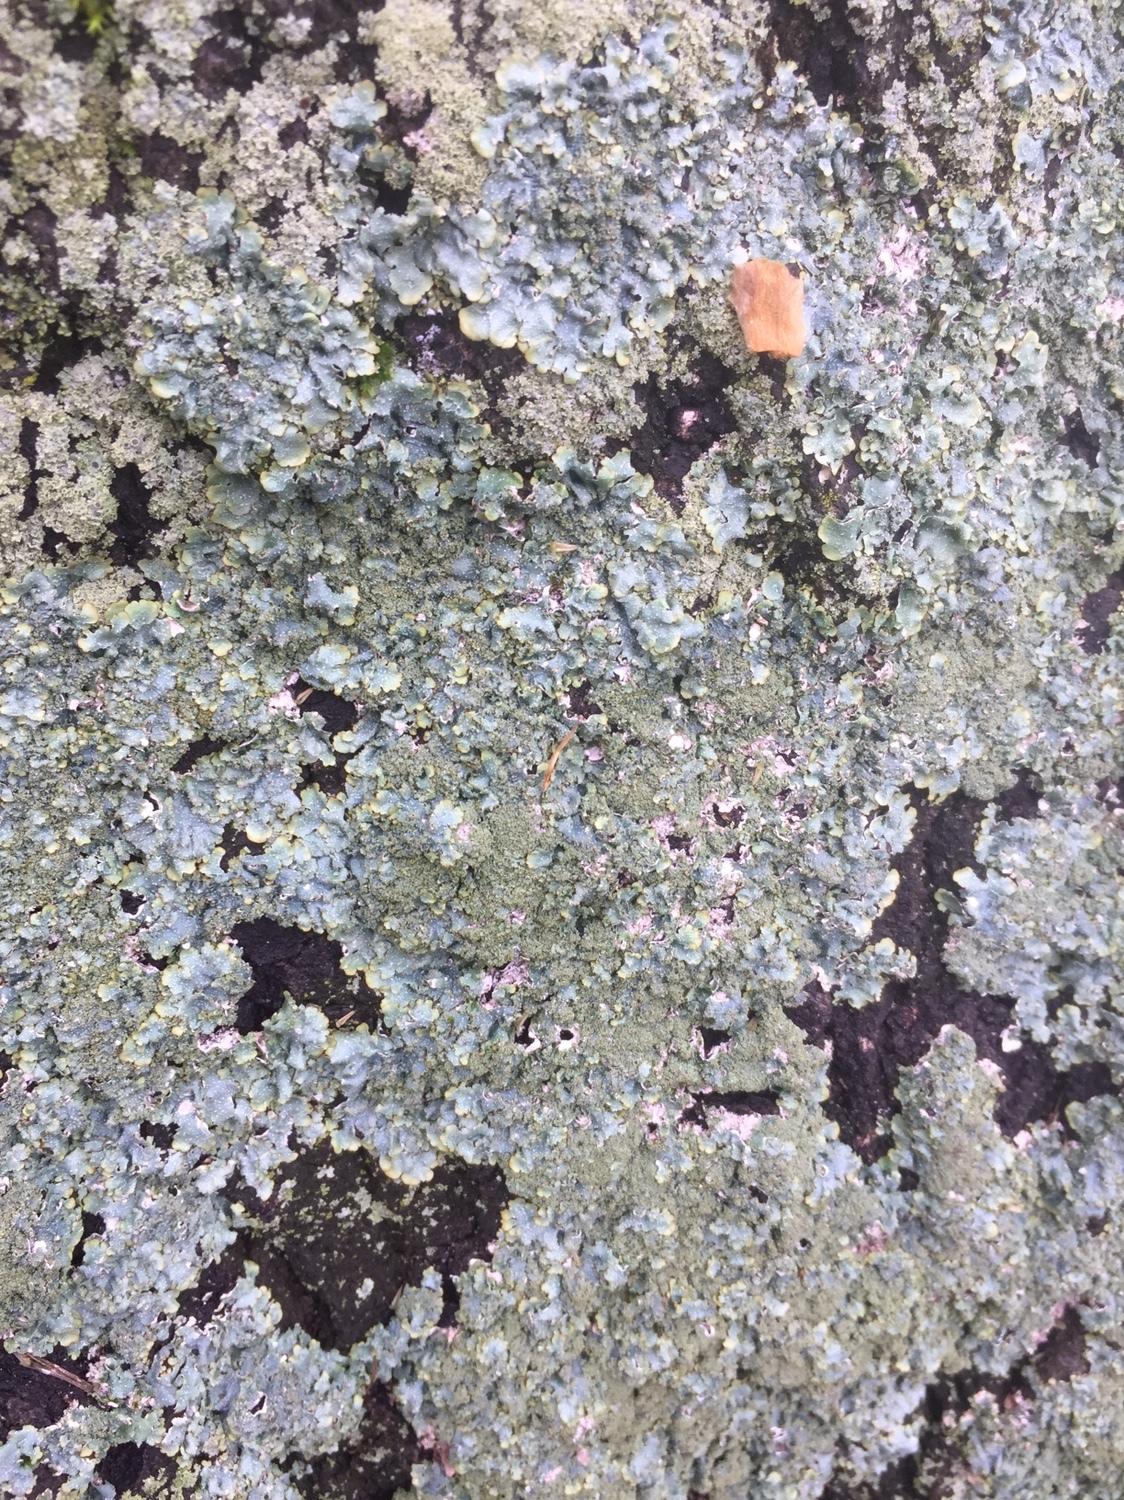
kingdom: Fungi
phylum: Ascomycota
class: Lecanoromycetes
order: Lecanorales
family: Parmeliaceae
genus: Punctelia
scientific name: Punctelia rudecta
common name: Rough speckled shield lichen
